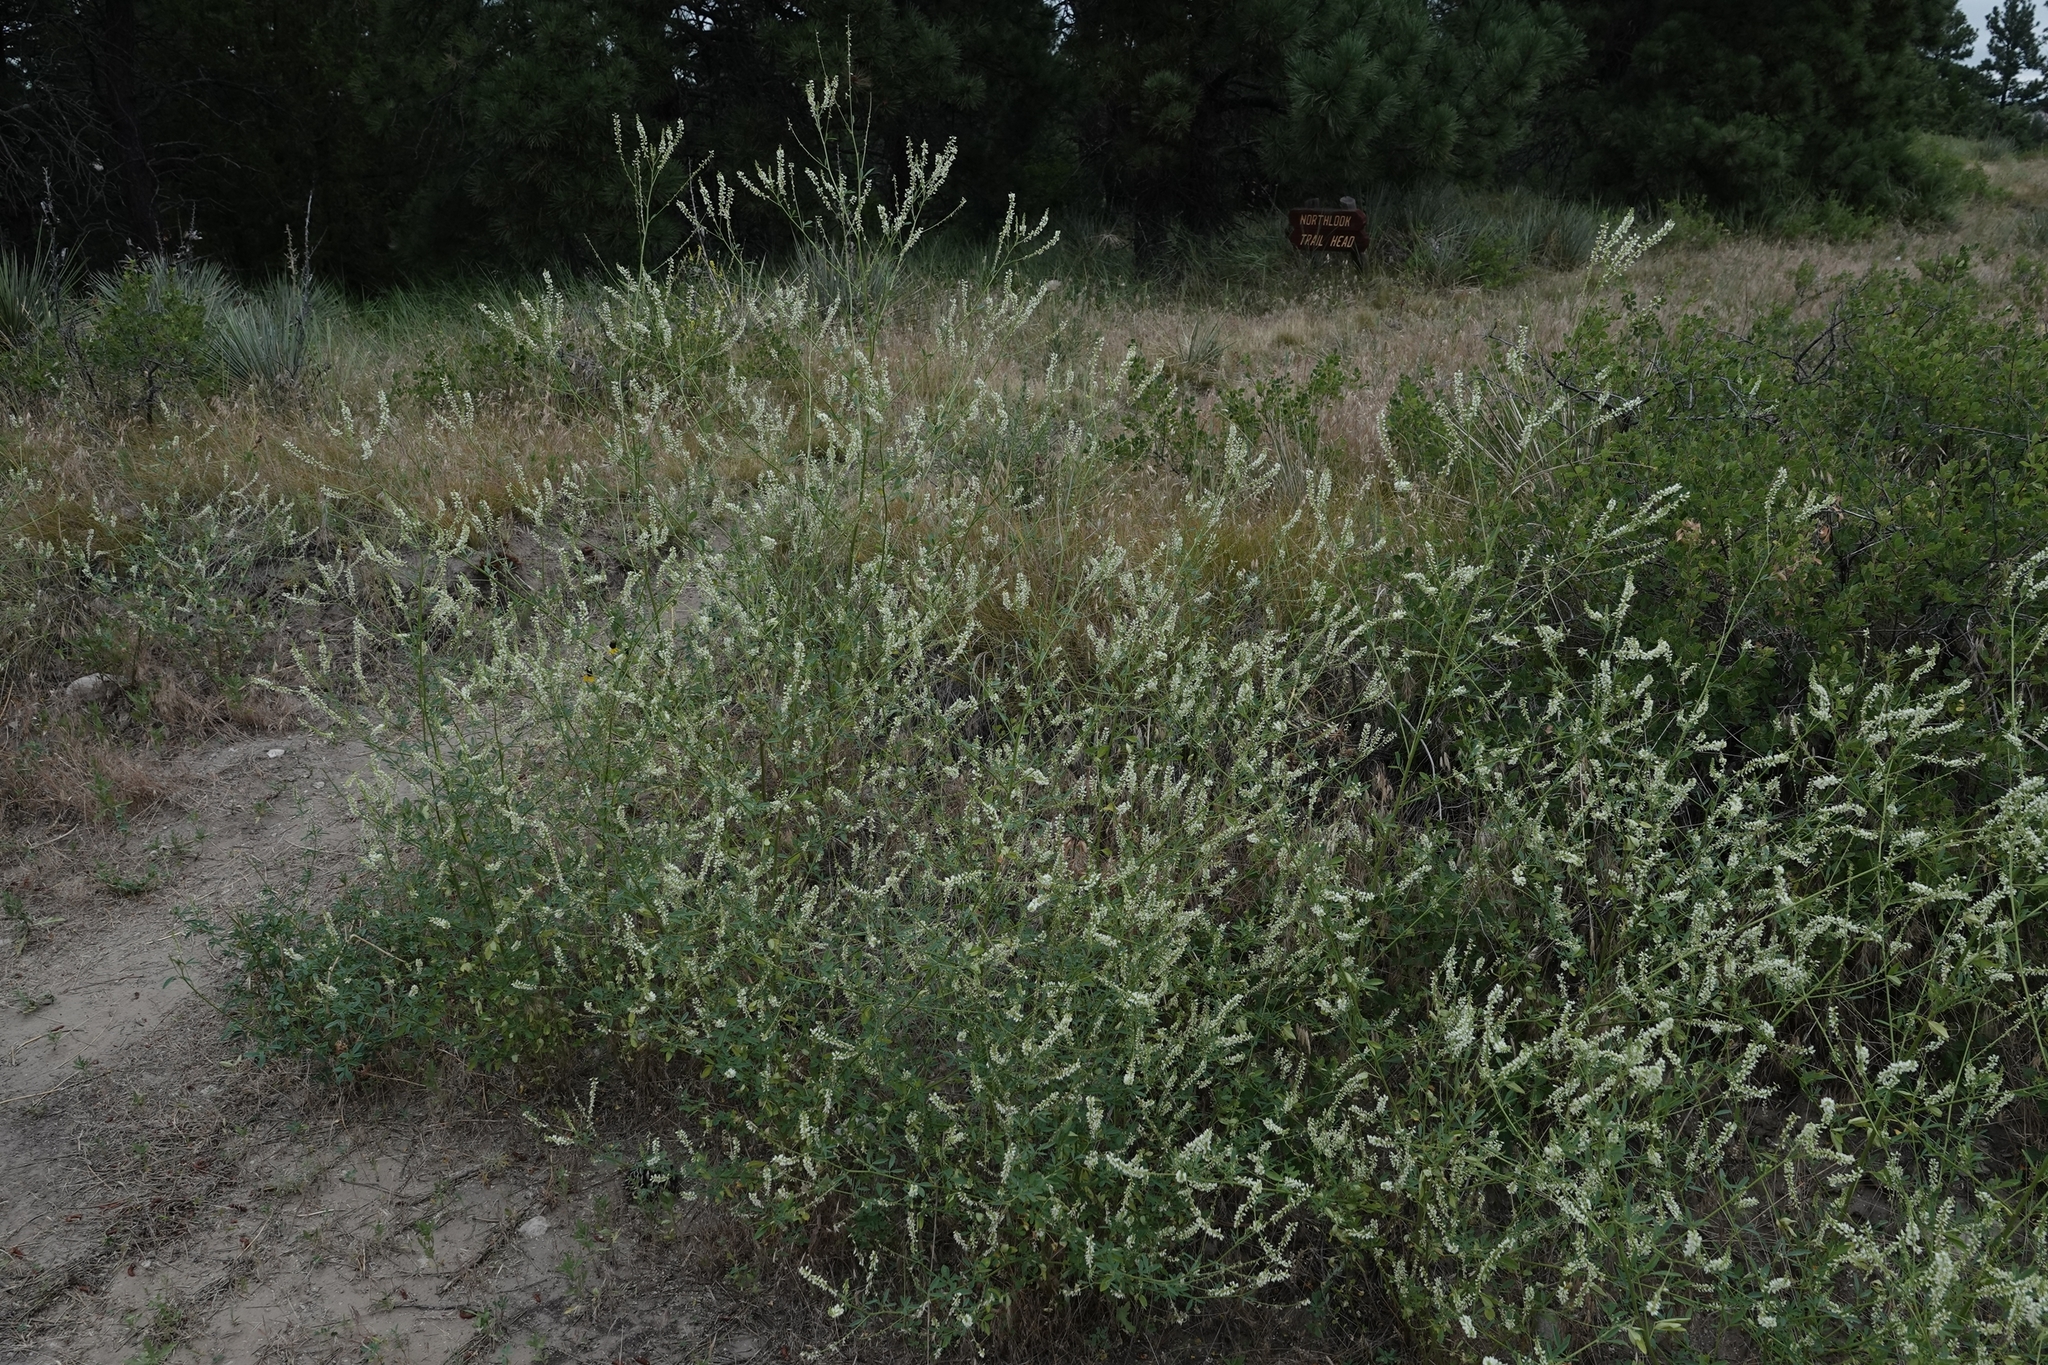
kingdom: Plantae
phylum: Tracheophyta
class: Magnoliopsida
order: Fabales
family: Fabaceae
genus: Melilotus
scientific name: Melilotus albus
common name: White melilot
